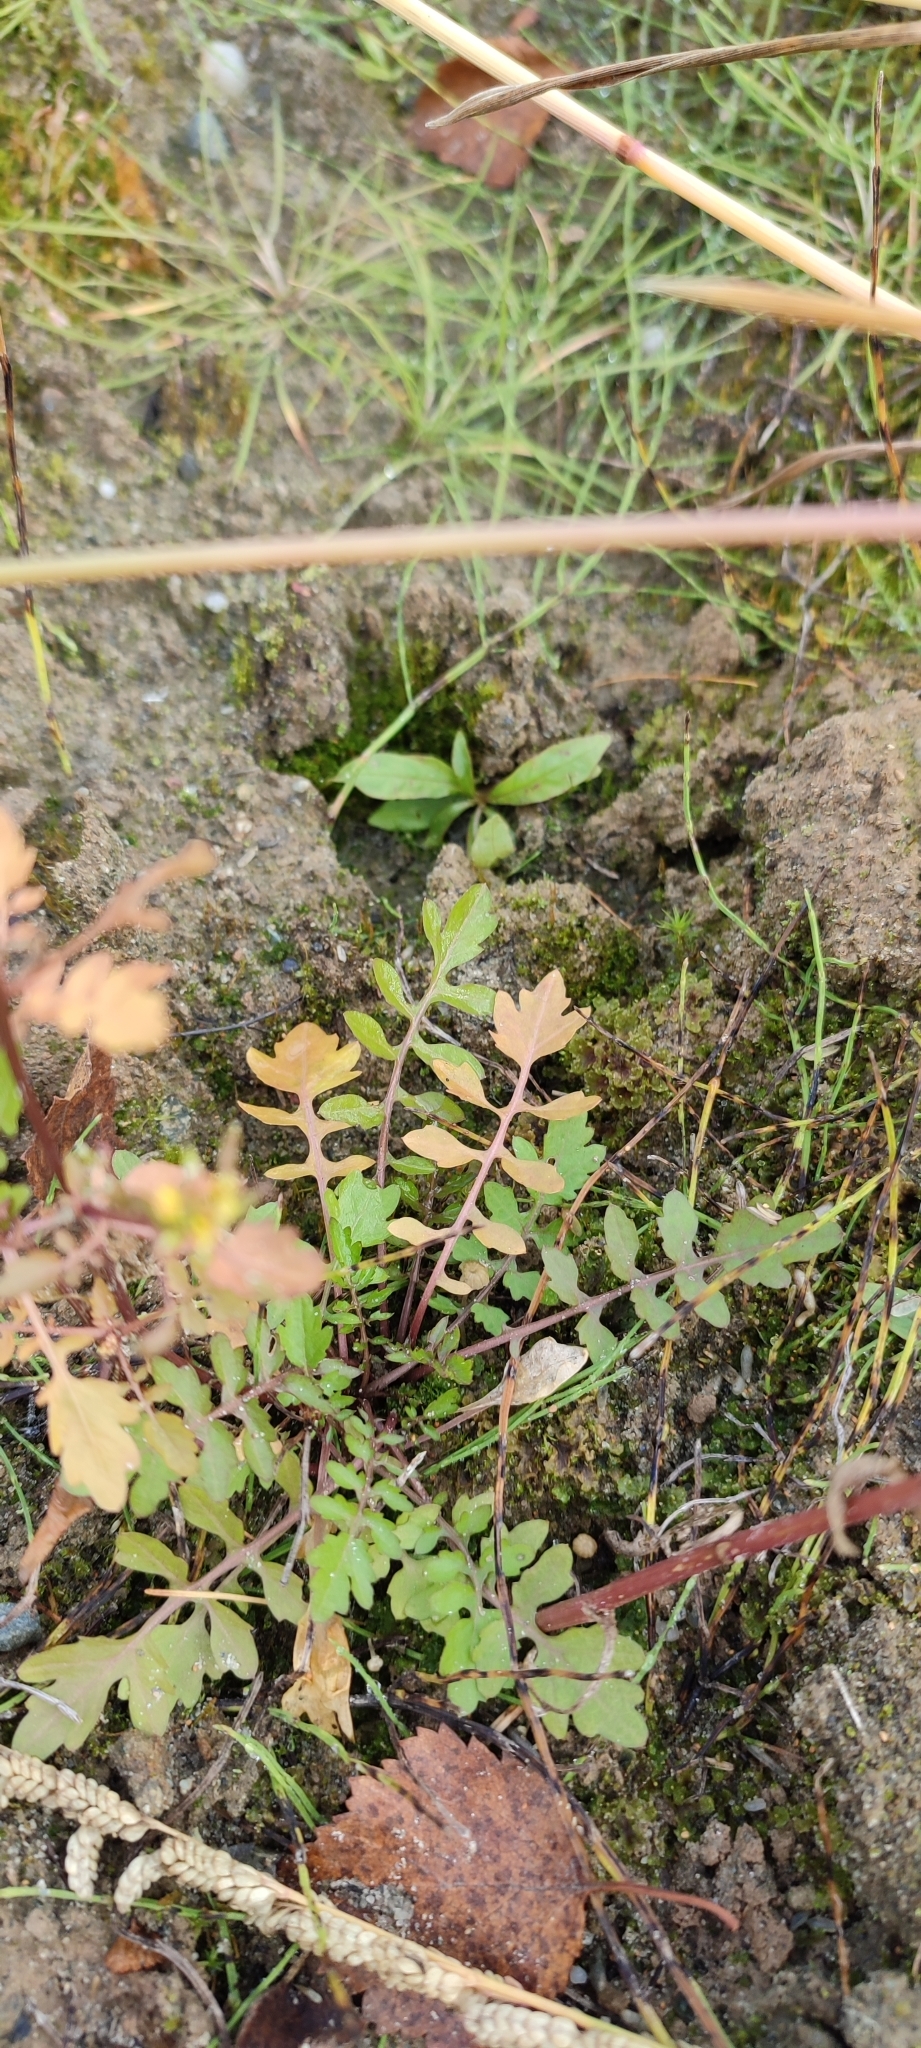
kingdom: Plantae
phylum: Tracheophyta
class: Magnoliopsida
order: Brassicales
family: Brassicaceae
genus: Rorippa
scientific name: Rorippa palustris
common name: Marsh yellow-cress
